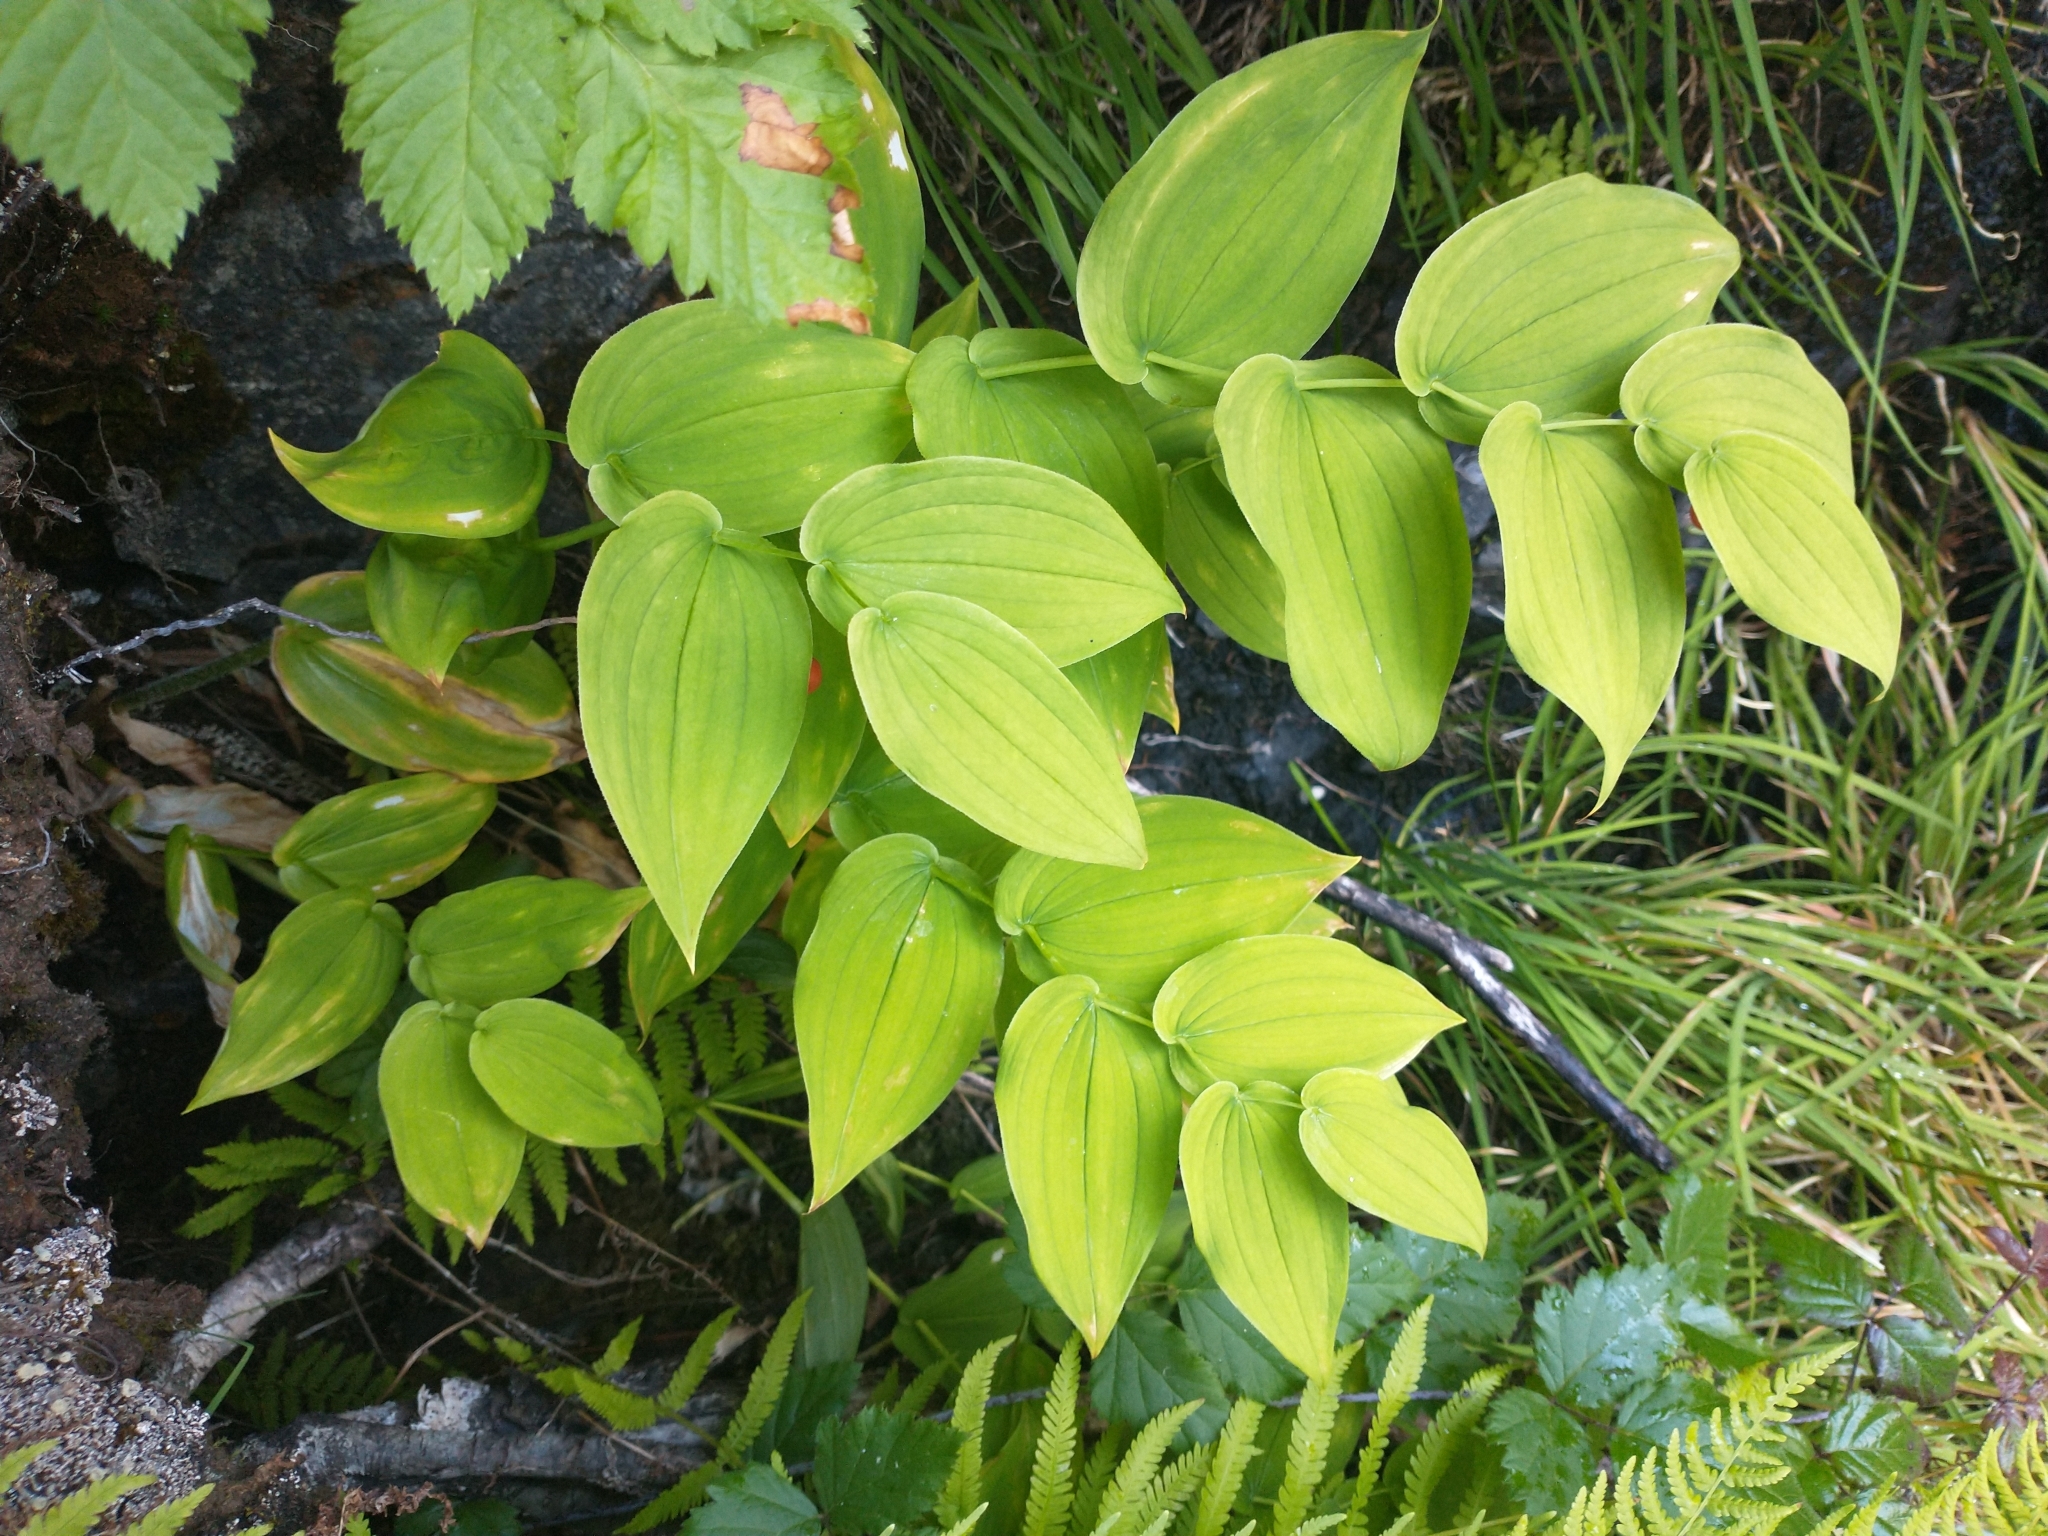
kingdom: Plantae
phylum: Tracheophyta
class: Liliopsida
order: Liliales
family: Liliaceae
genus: Streptopus
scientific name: Streptopus amplexifolius
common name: Clasp twisted stalk
